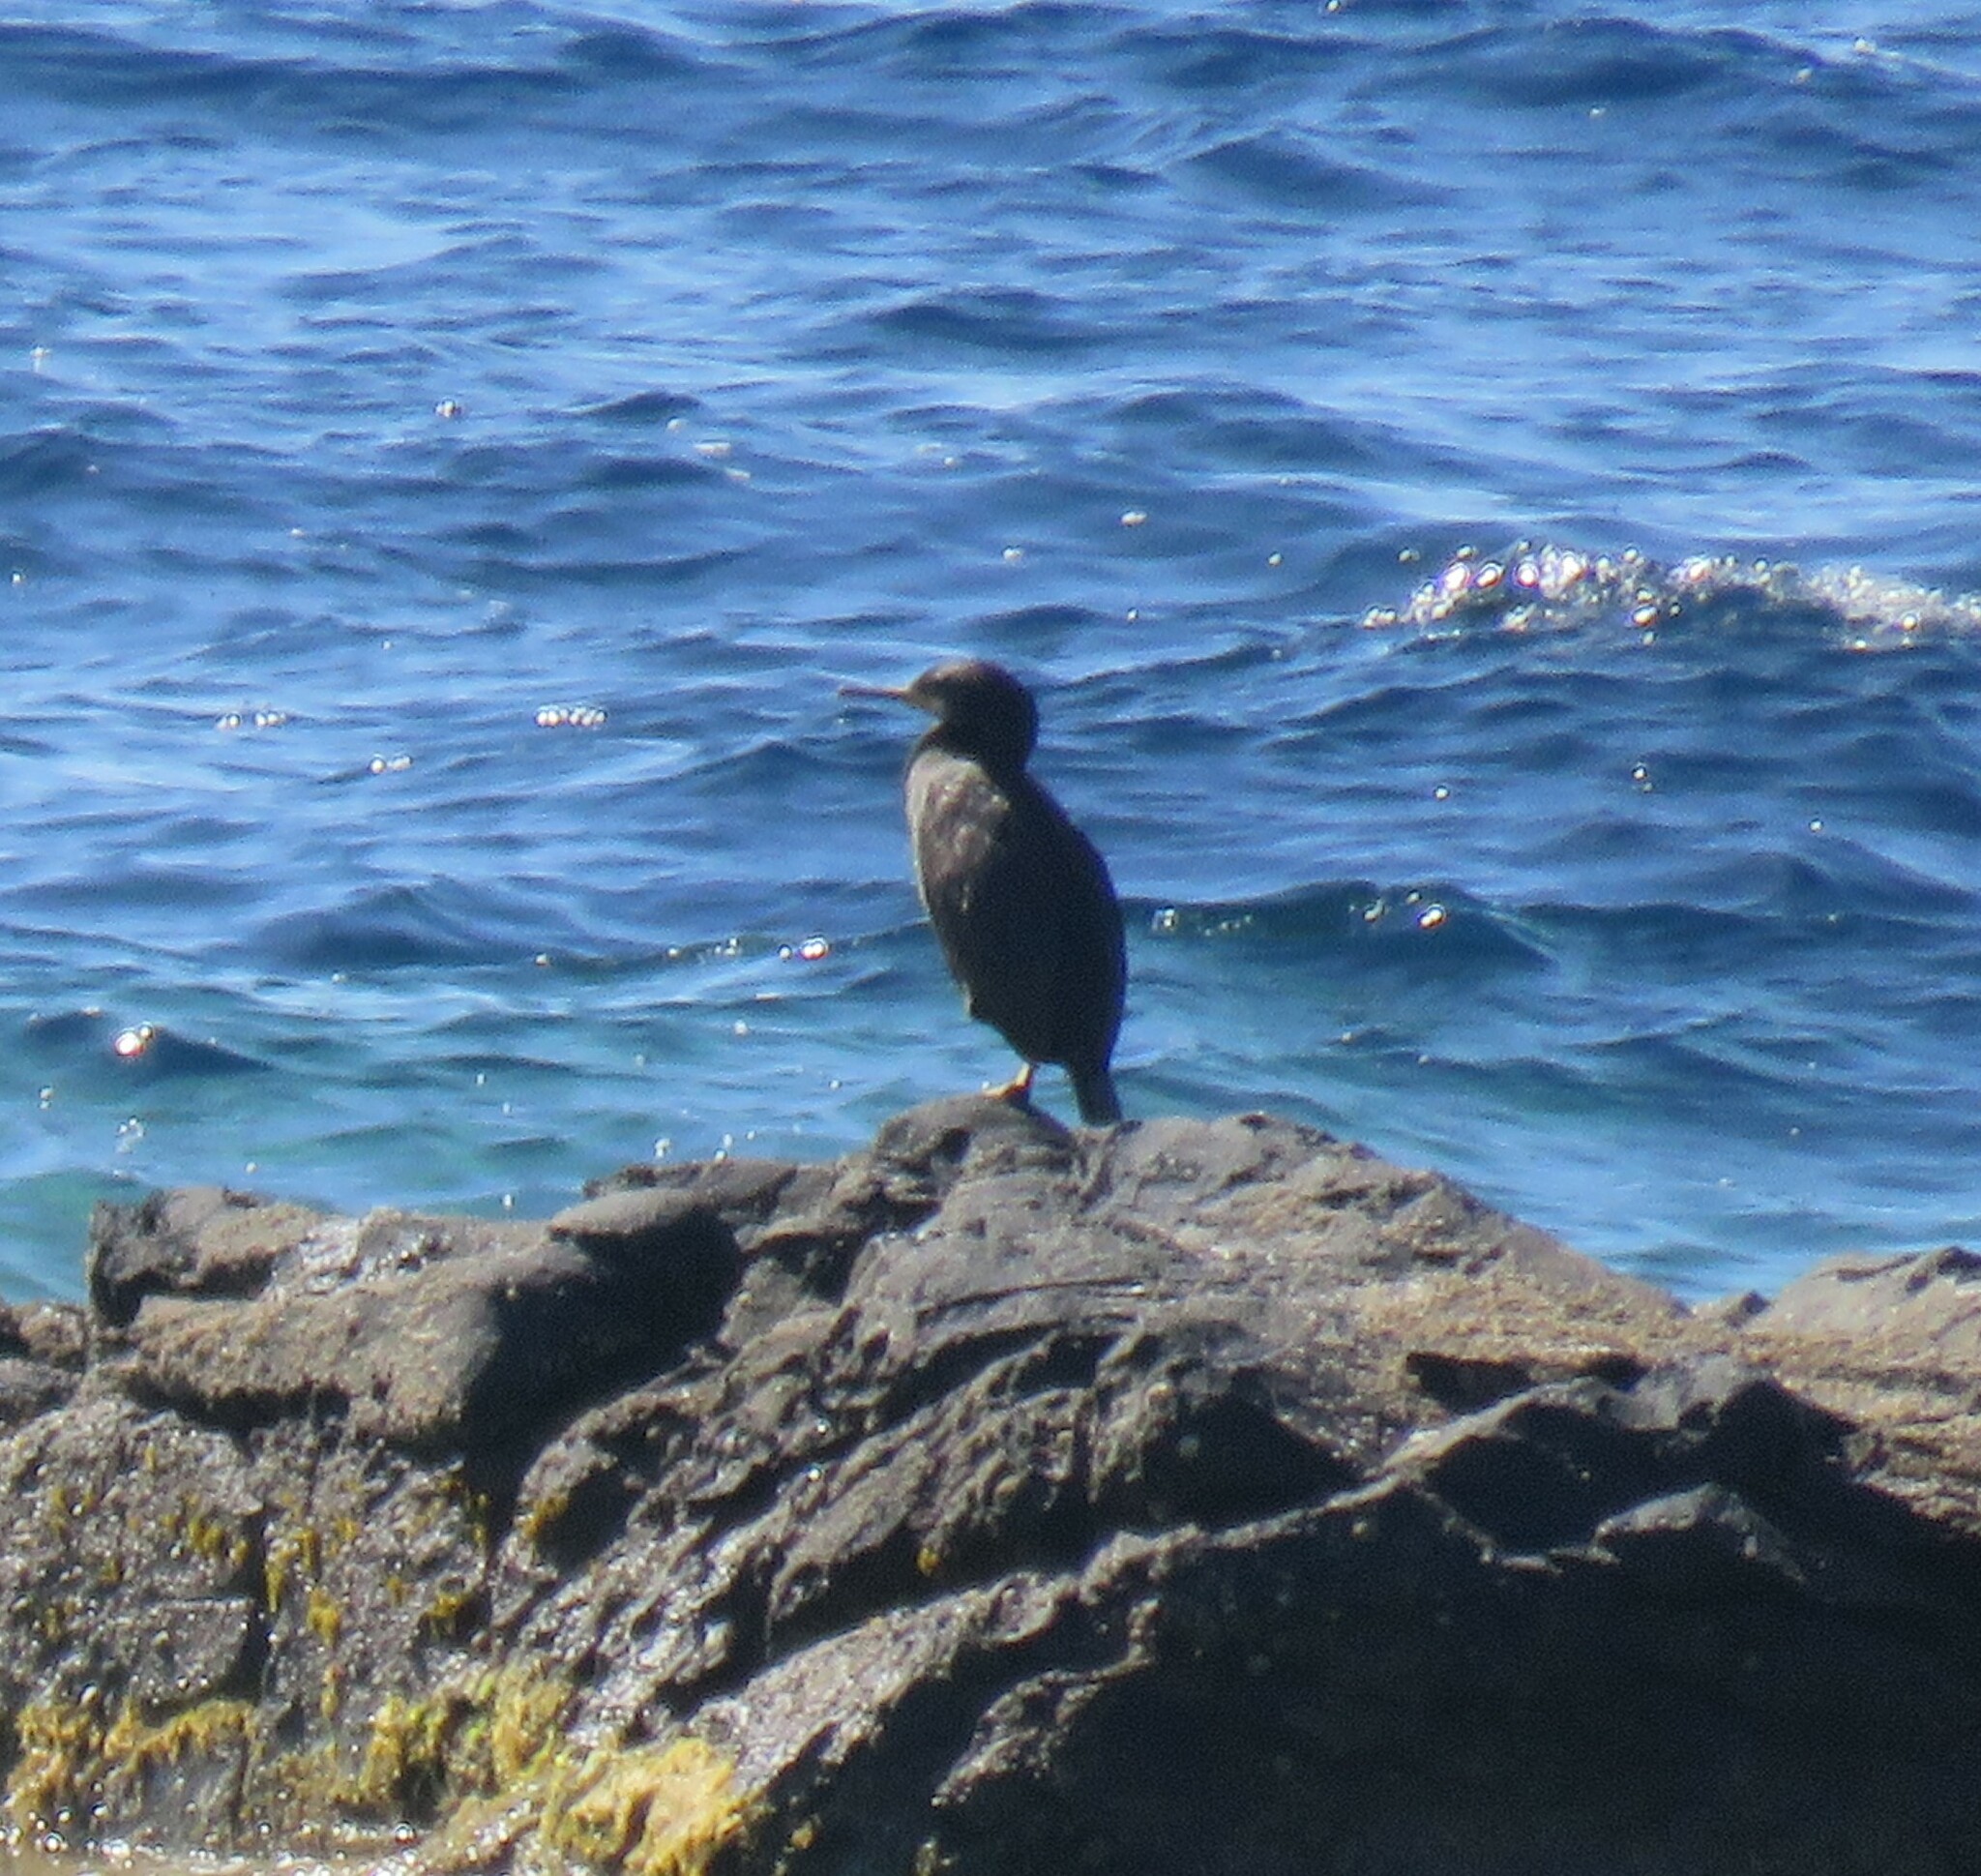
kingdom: Animalia
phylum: Chordata
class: Aves
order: Suliformes
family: Phalacrocoracidae
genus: Phalacrocorax
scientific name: Phalacrocorax aristotelis
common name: European shag
